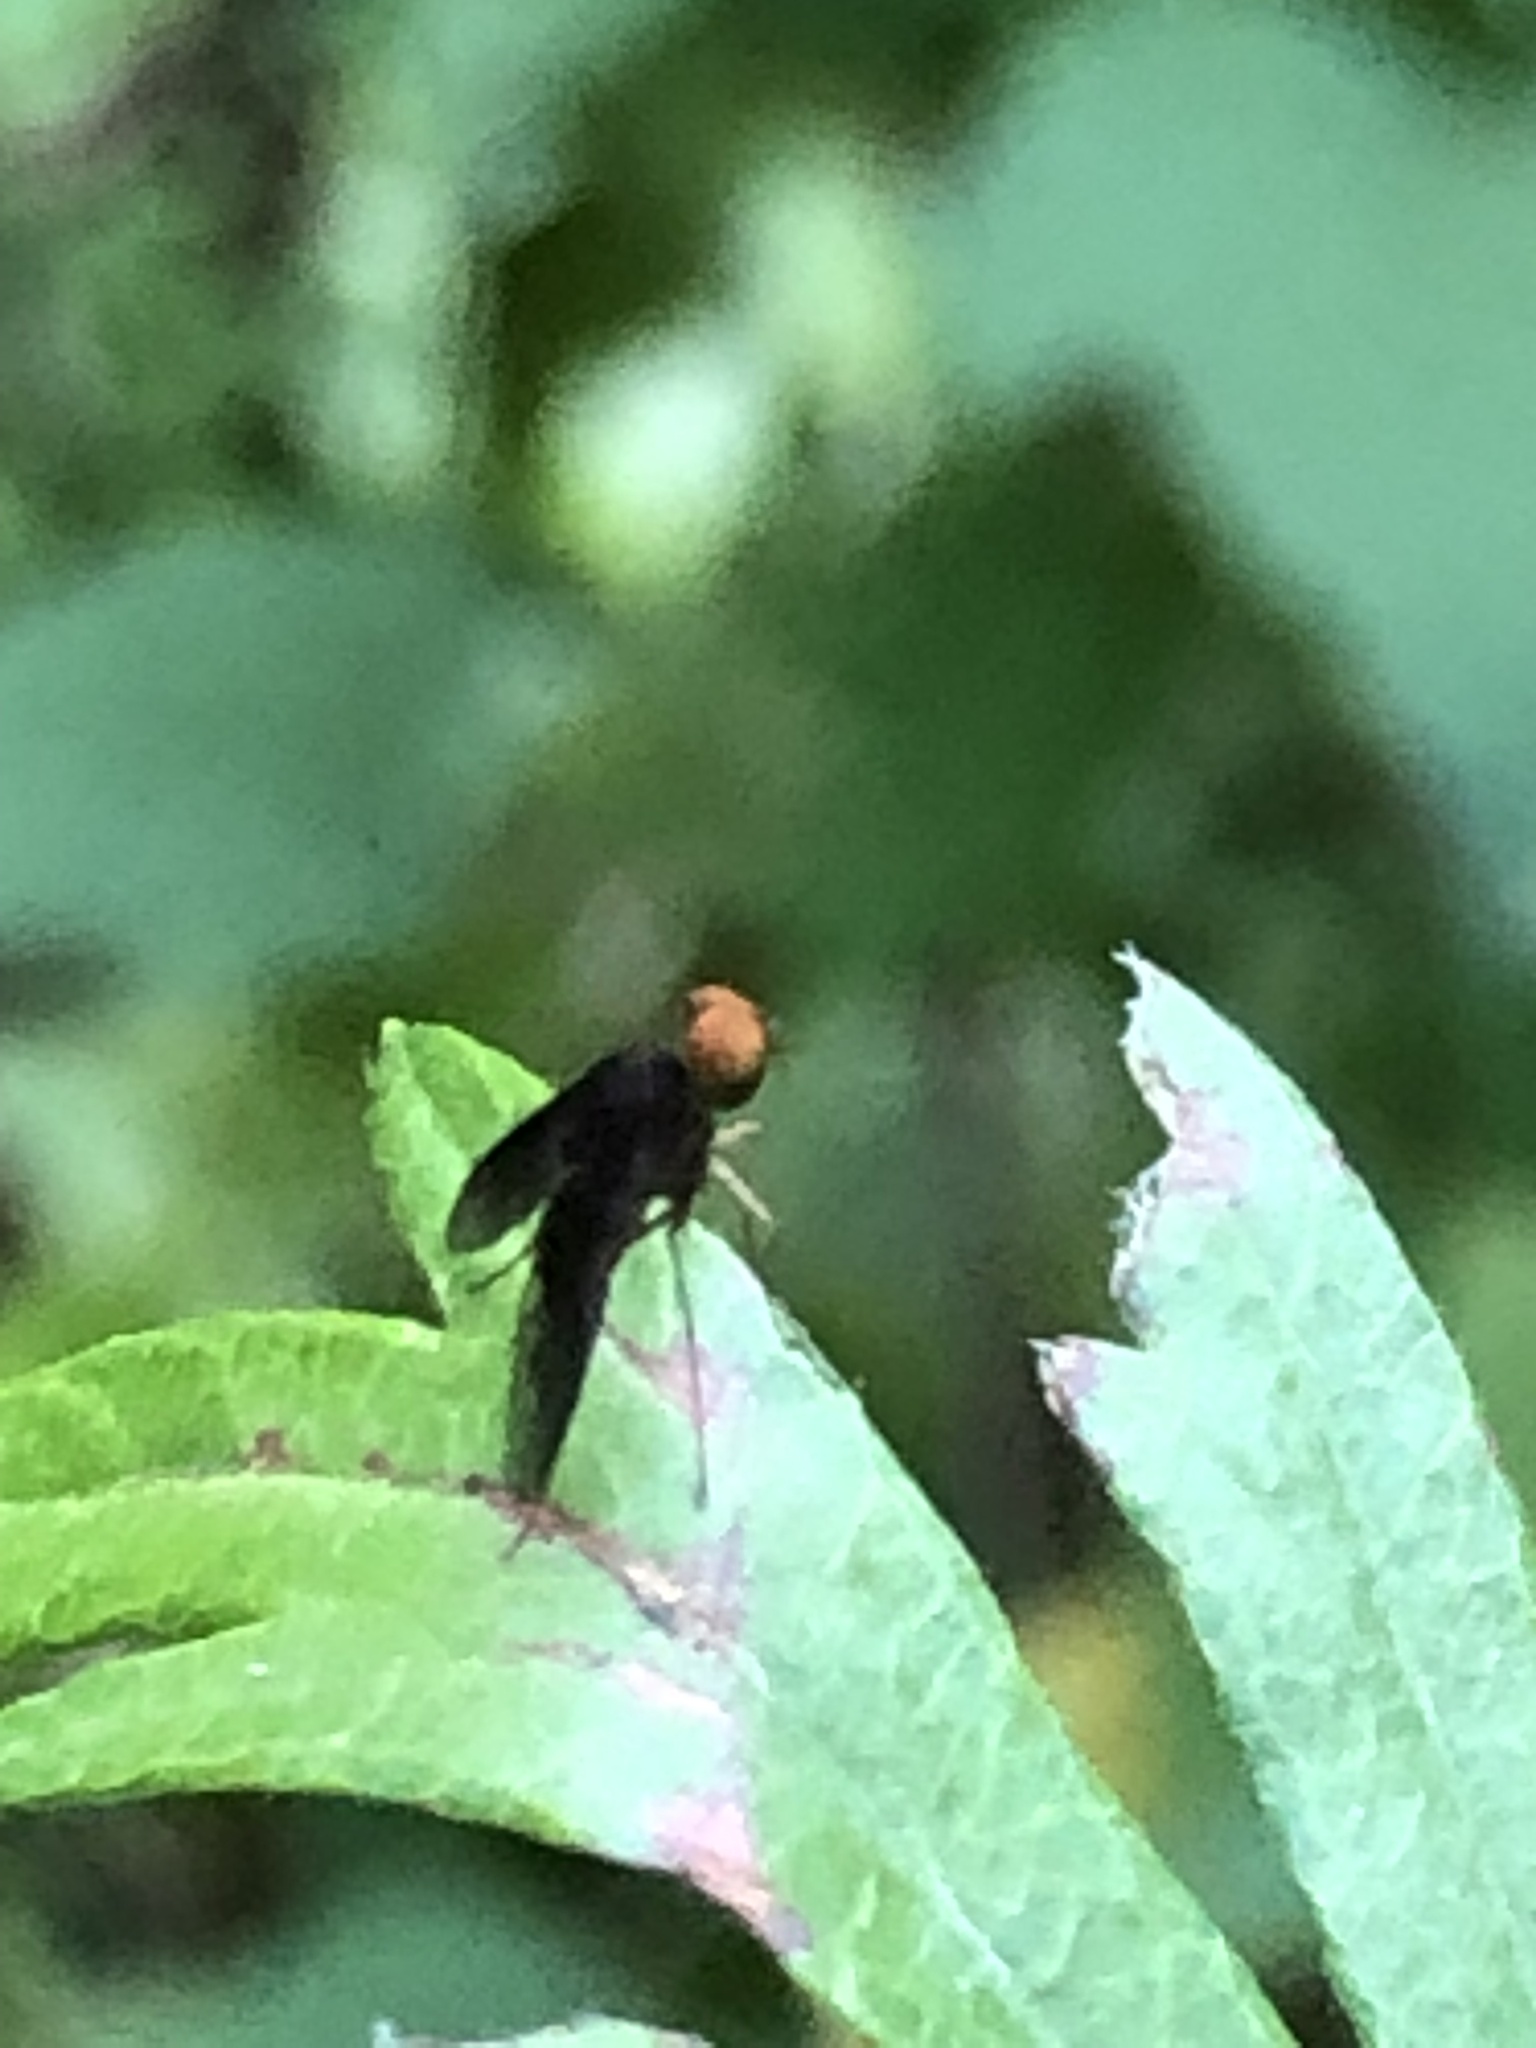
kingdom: Animalia
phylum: Arthropoda
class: Insecta
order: Diptera
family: Rhagionidae
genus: Chrysopilus
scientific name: Chrysopilus quadratus
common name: Quadrate snipe fly
